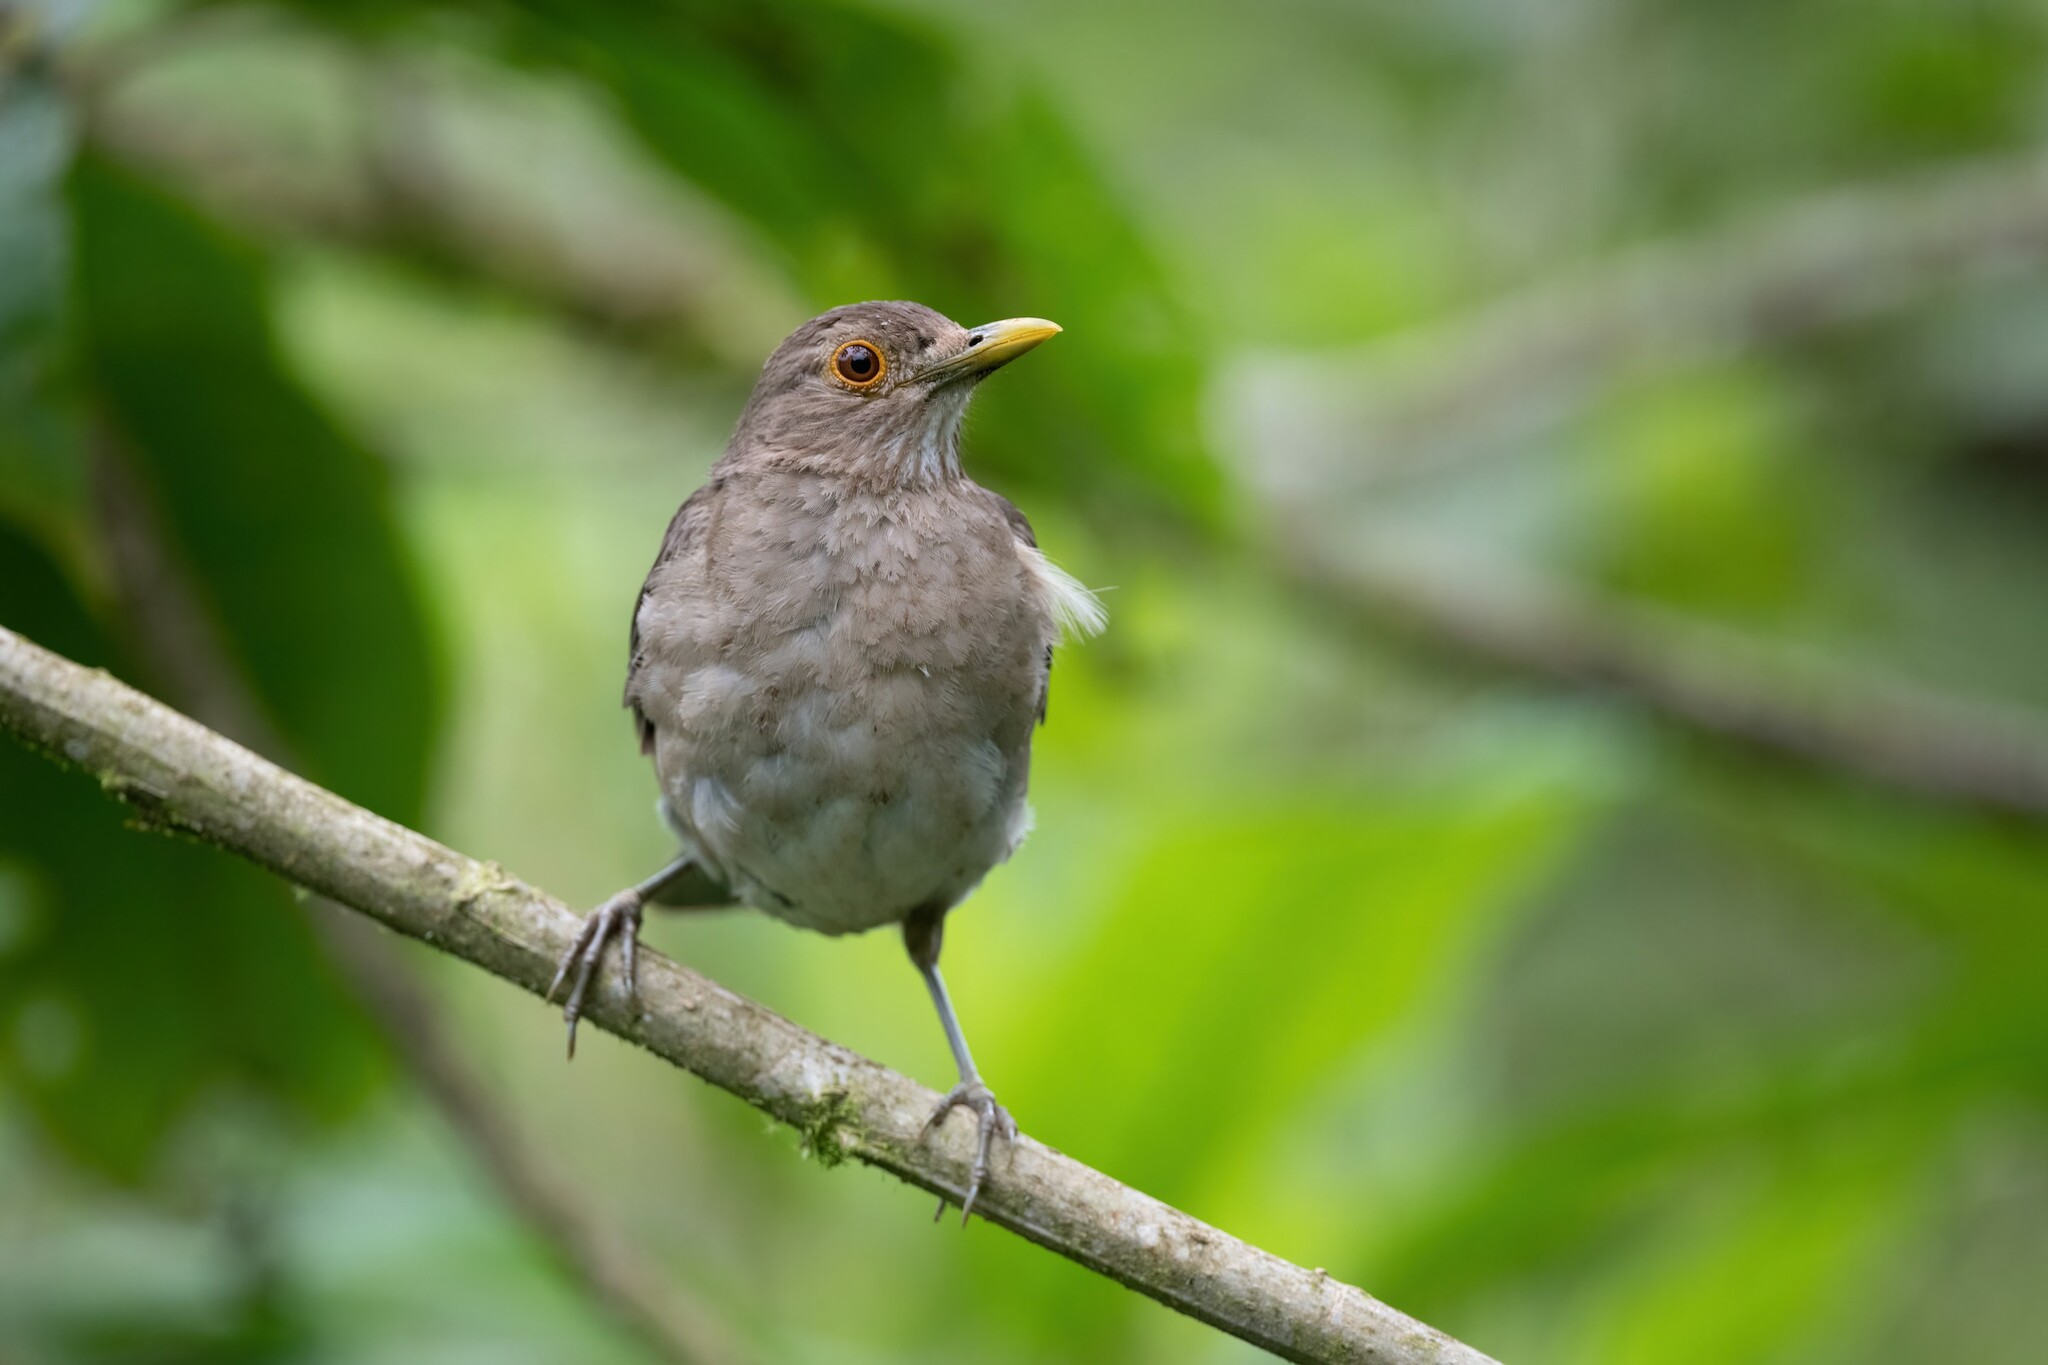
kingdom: Animalia
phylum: Chordata
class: Aves
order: Passeriformes
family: Turdidae
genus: Turdus
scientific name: Turdus maculirostris
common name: Ecuadorian thrush
